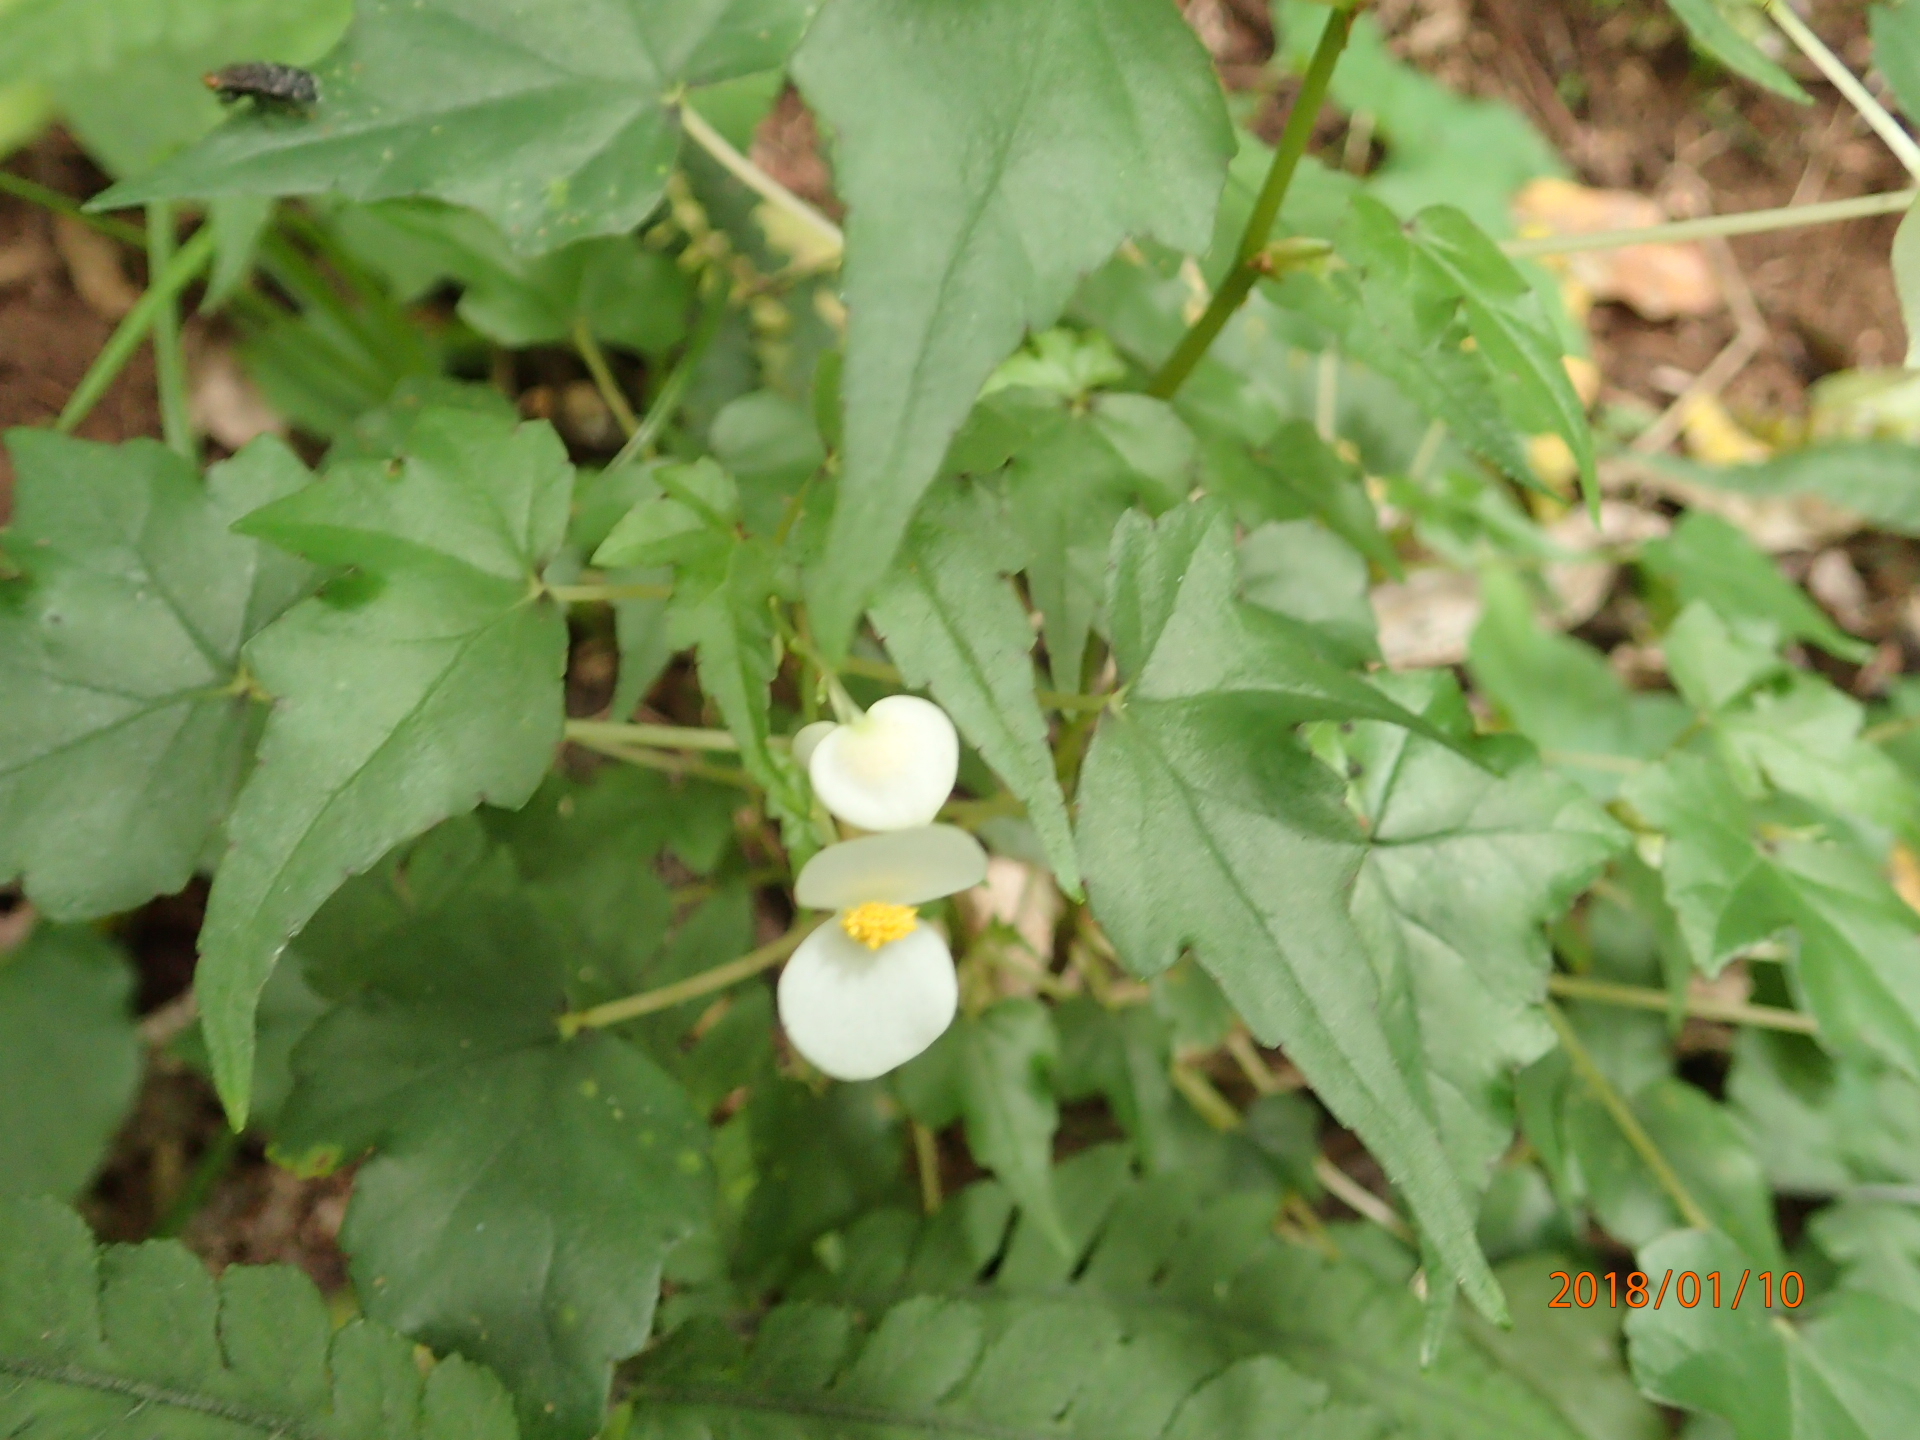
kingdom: Plantae
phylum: Tracheophyta
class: Magnoliopsida
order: Cucurbitales
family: Begoniaceae
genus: Begonia
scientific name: Begonia dregei
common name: Grape-leaf begonia
